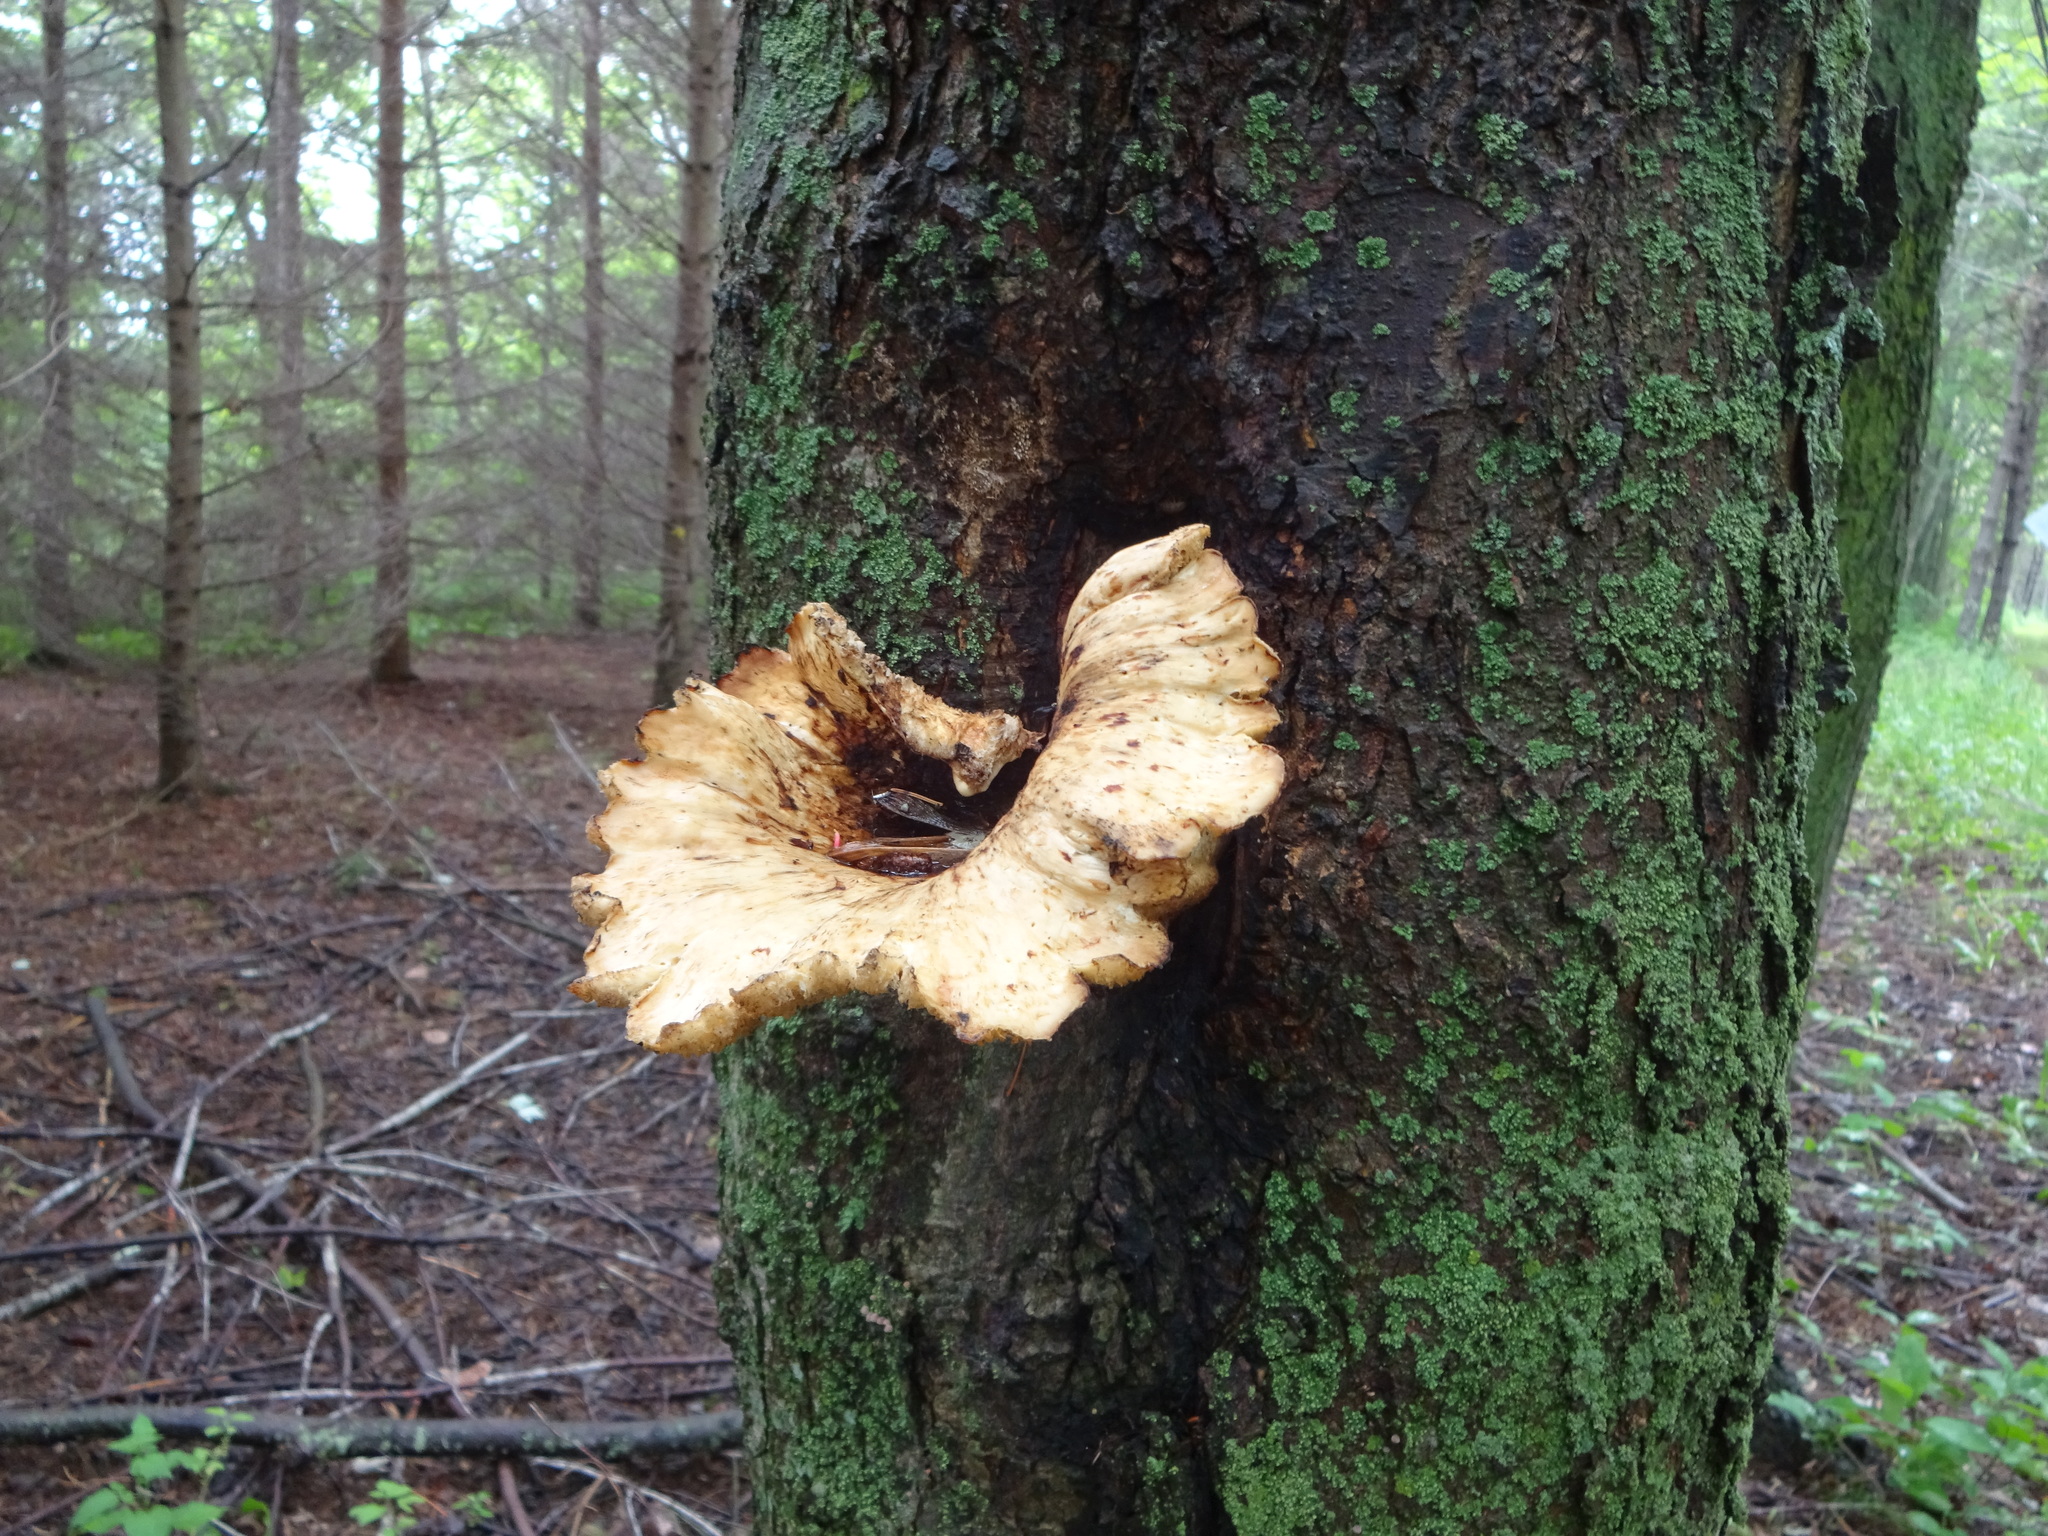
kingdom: Fungi
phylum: Basidiomycota
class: Agaricomycetes
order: Polyporales
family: Polyporaceae
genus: Cerioporus
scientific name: Cerioporus squamosus
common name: Dryad's saddle
